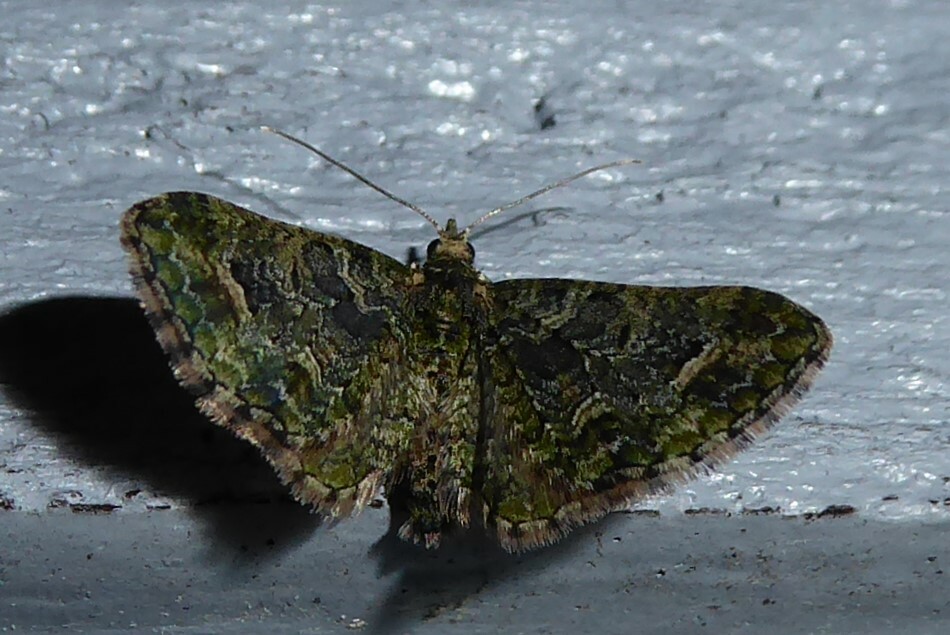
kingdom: Animalia
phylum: Arthropoda
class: Insecta
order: Lepidoptera
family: Geometridae
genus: Idaea
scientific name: Idaea mutanda
